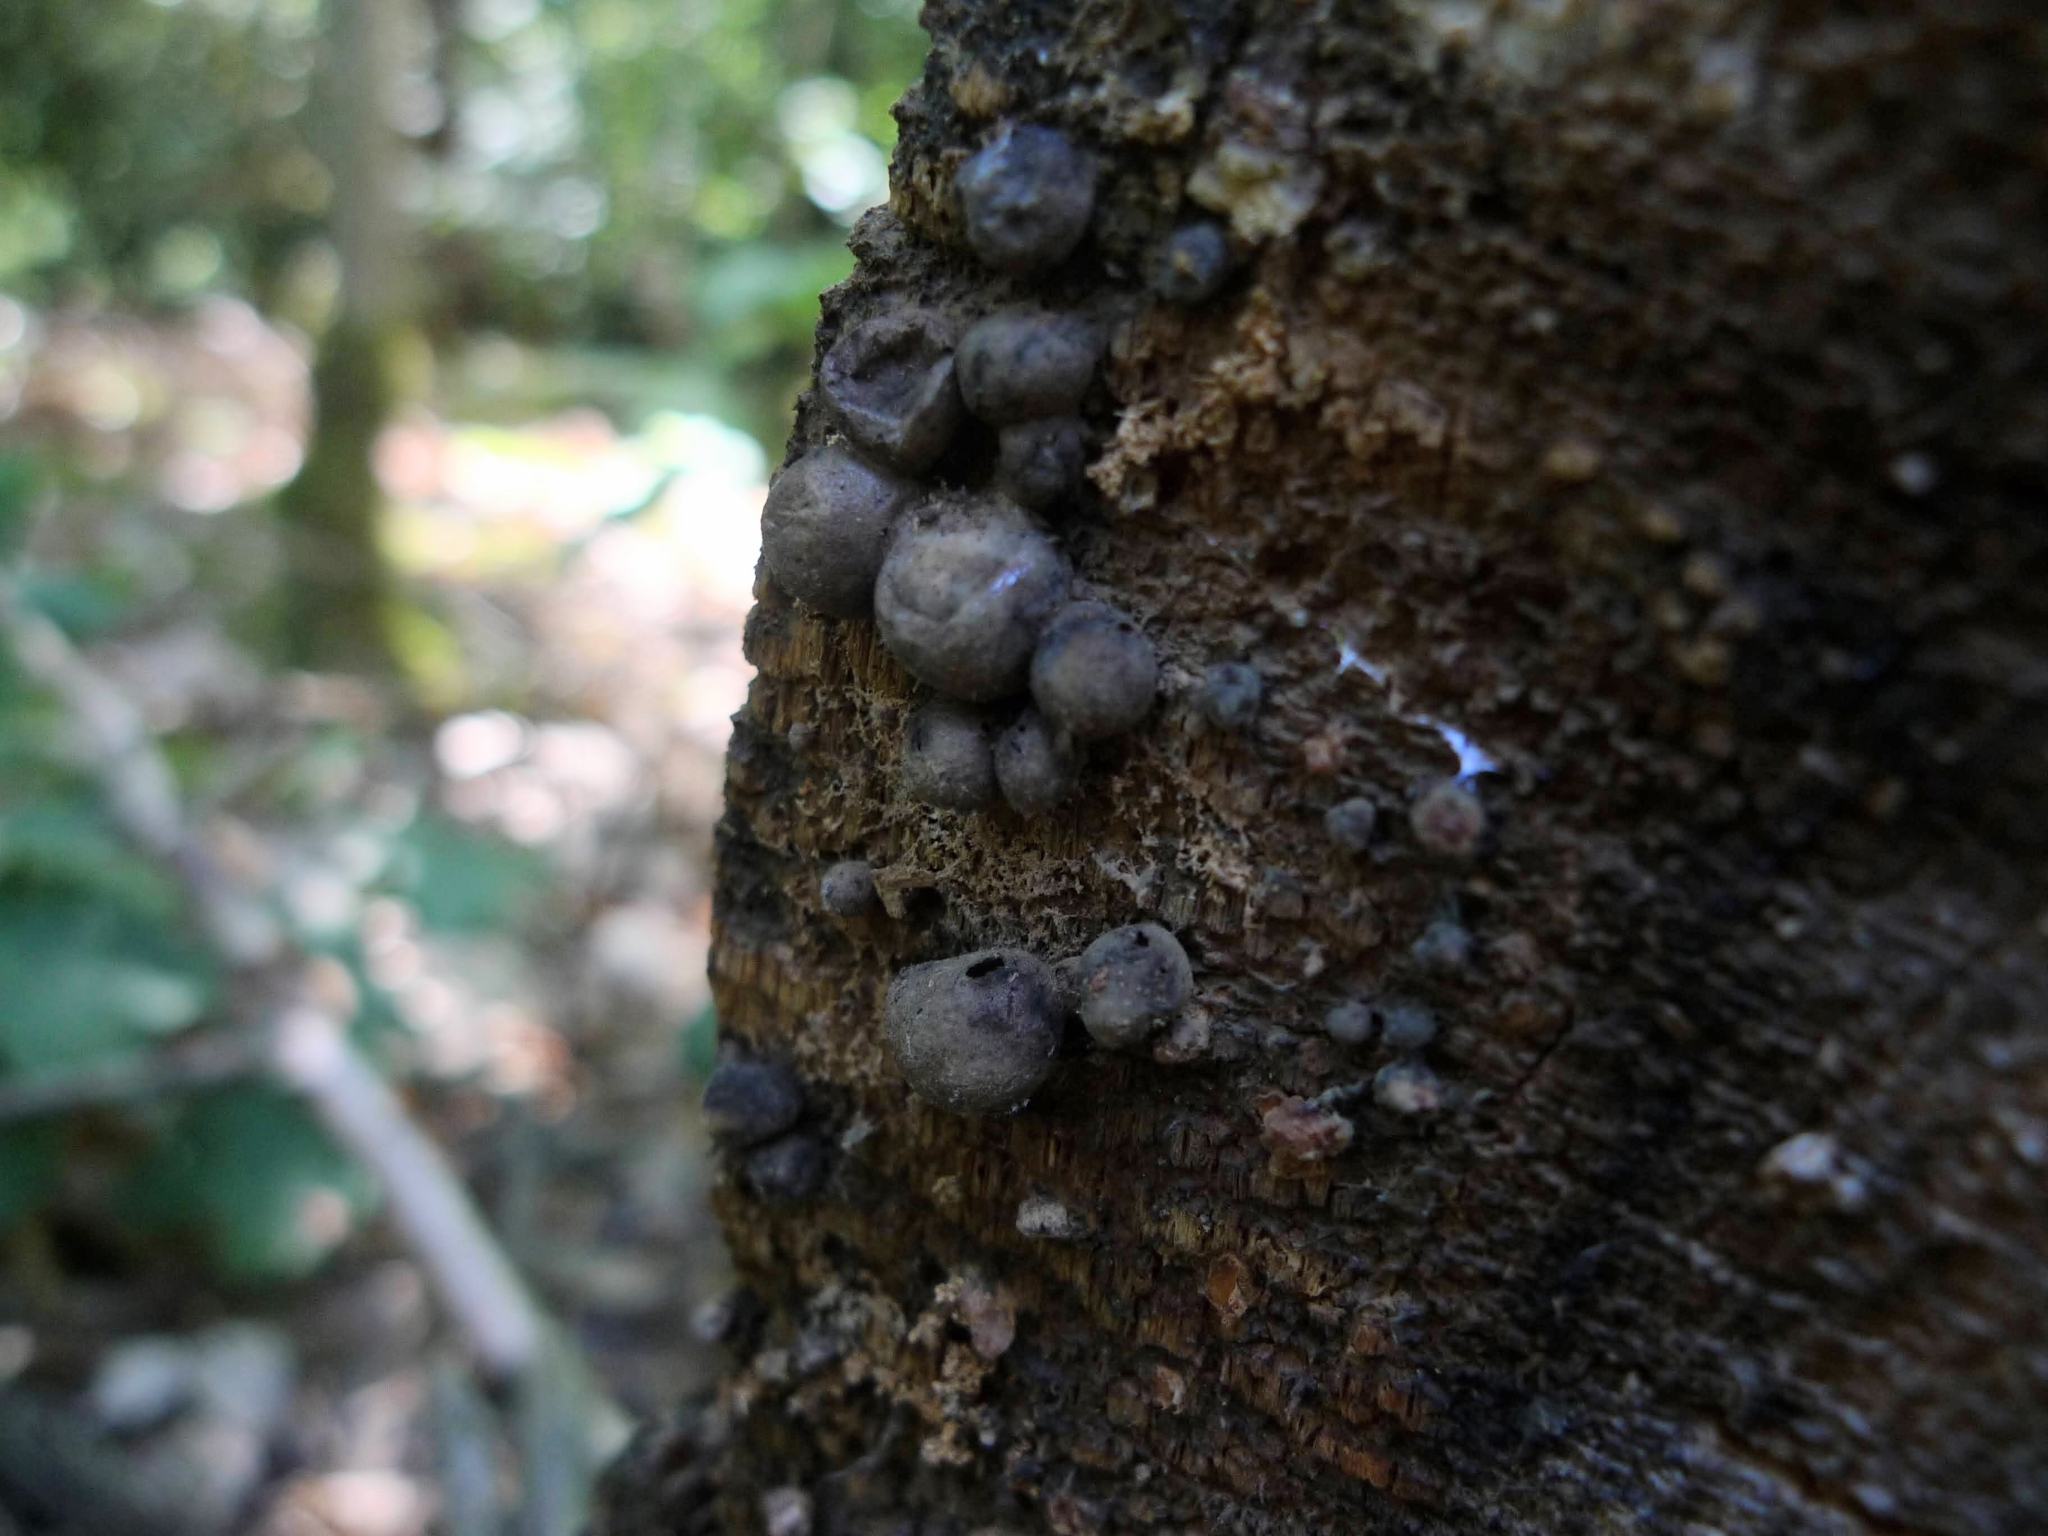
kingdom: Protozoa
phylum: Mycetozoa
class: Myxomycetes
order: Cribrariales
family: Tubiferaceae
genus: Lycogala
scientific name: Lycogala epidendrum
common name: Wolf's milk
